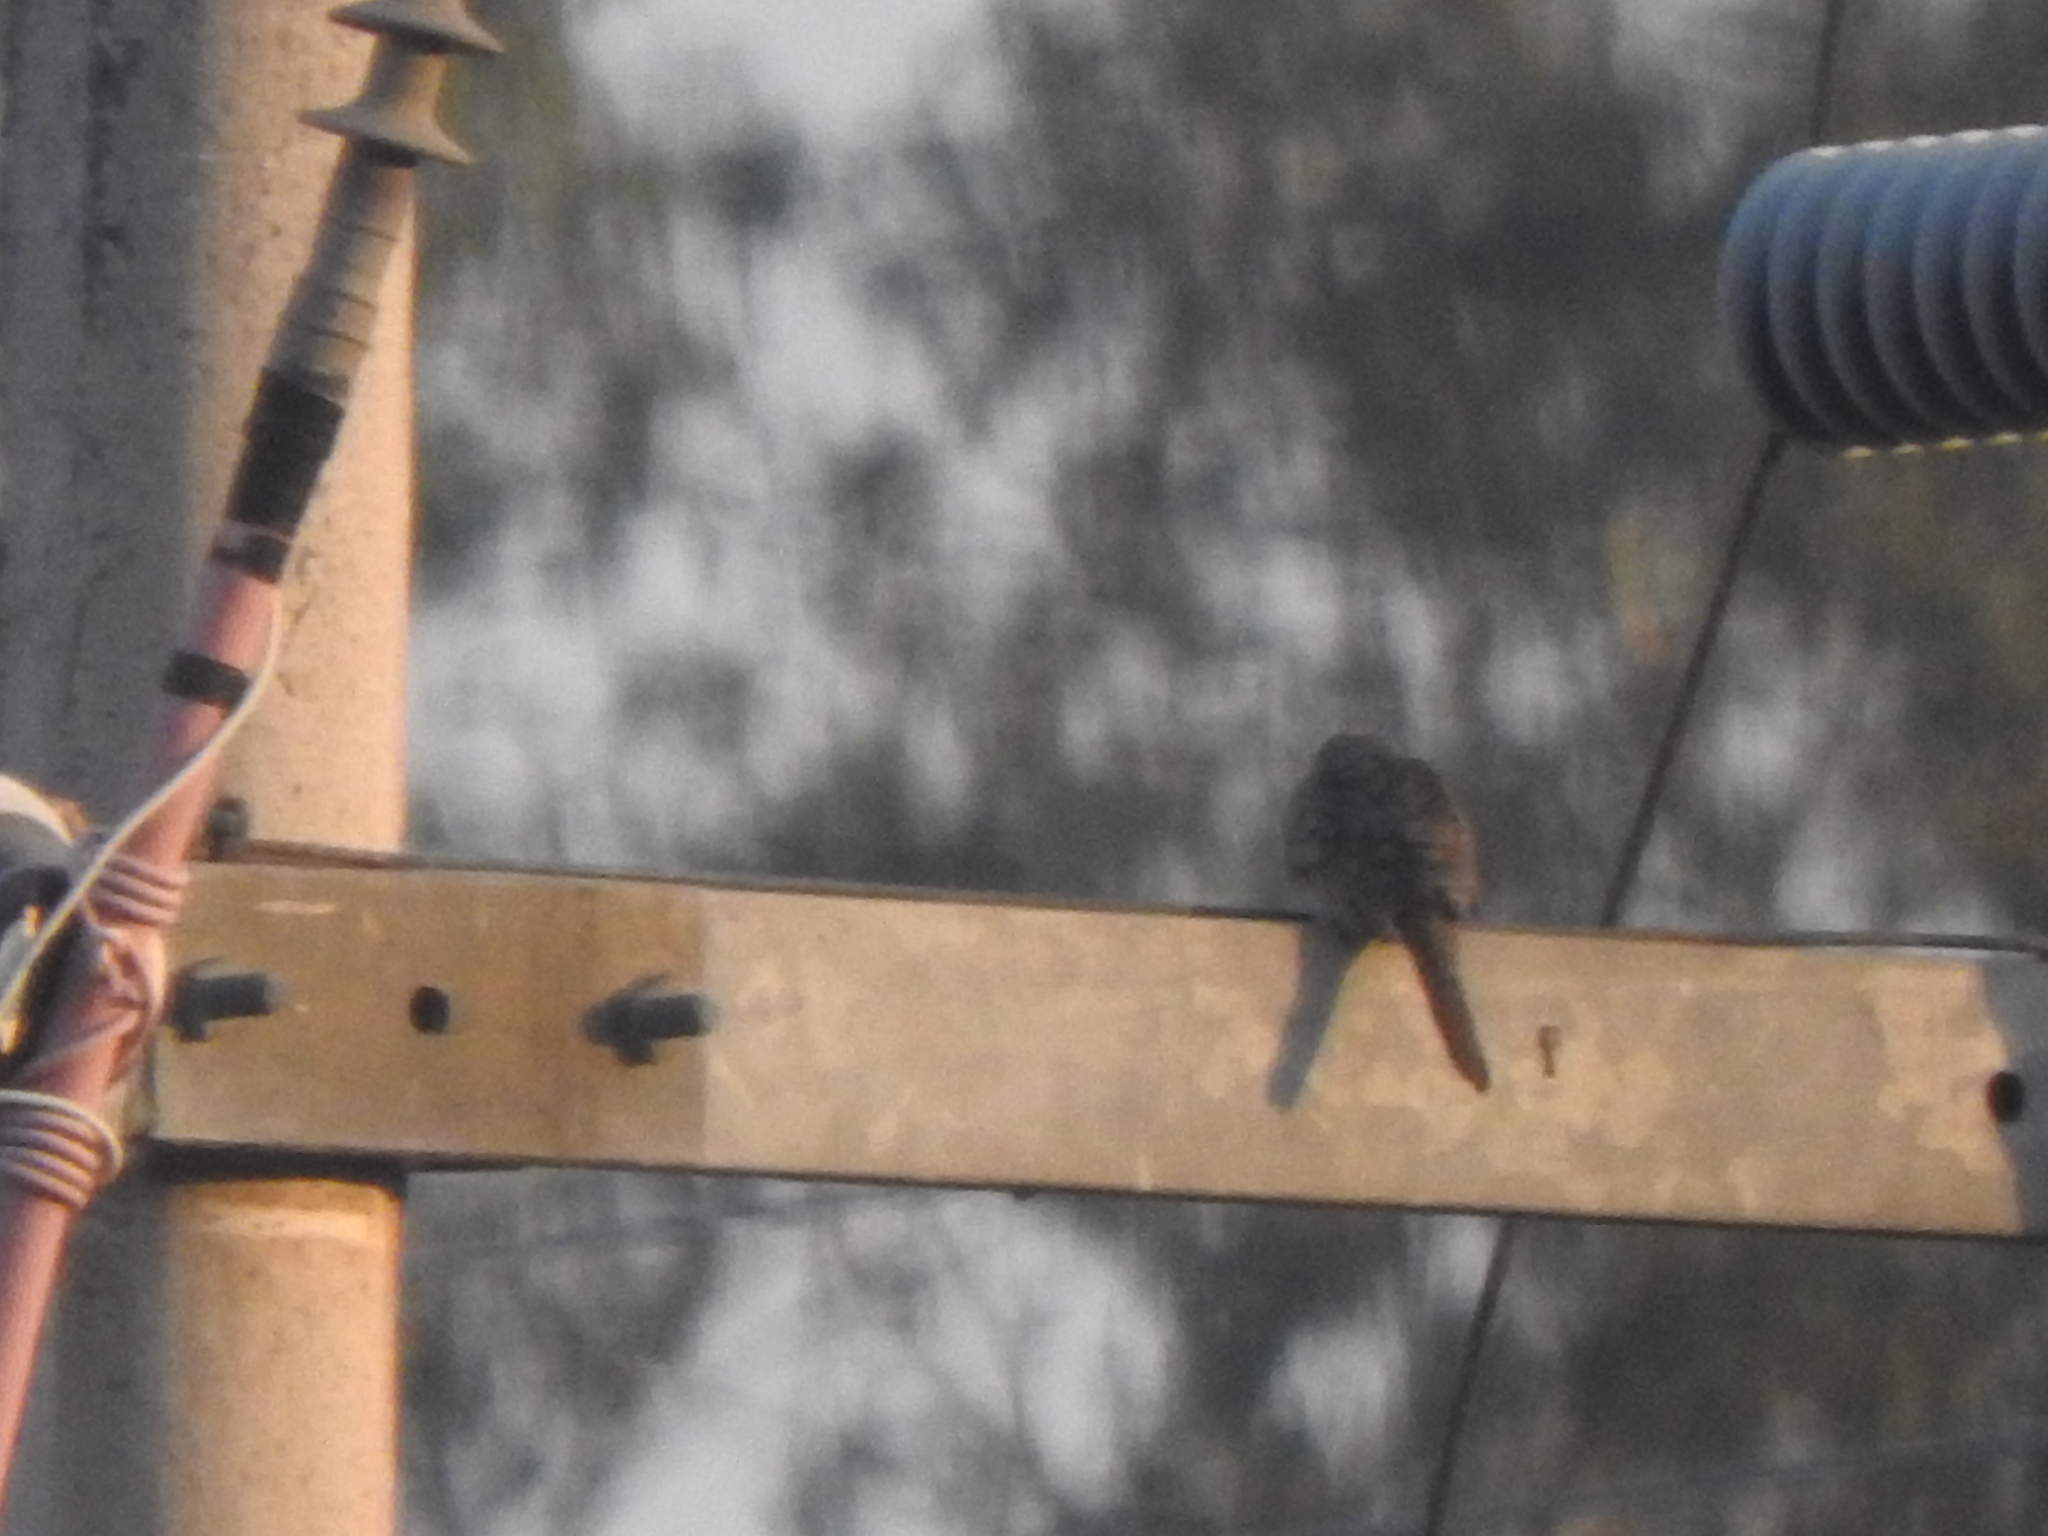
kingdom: Animalia
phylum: Chordata
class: Aves
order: Columbiformes
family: Columbidae
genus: Columbina
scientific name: Columbina inca
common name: Inca dove
